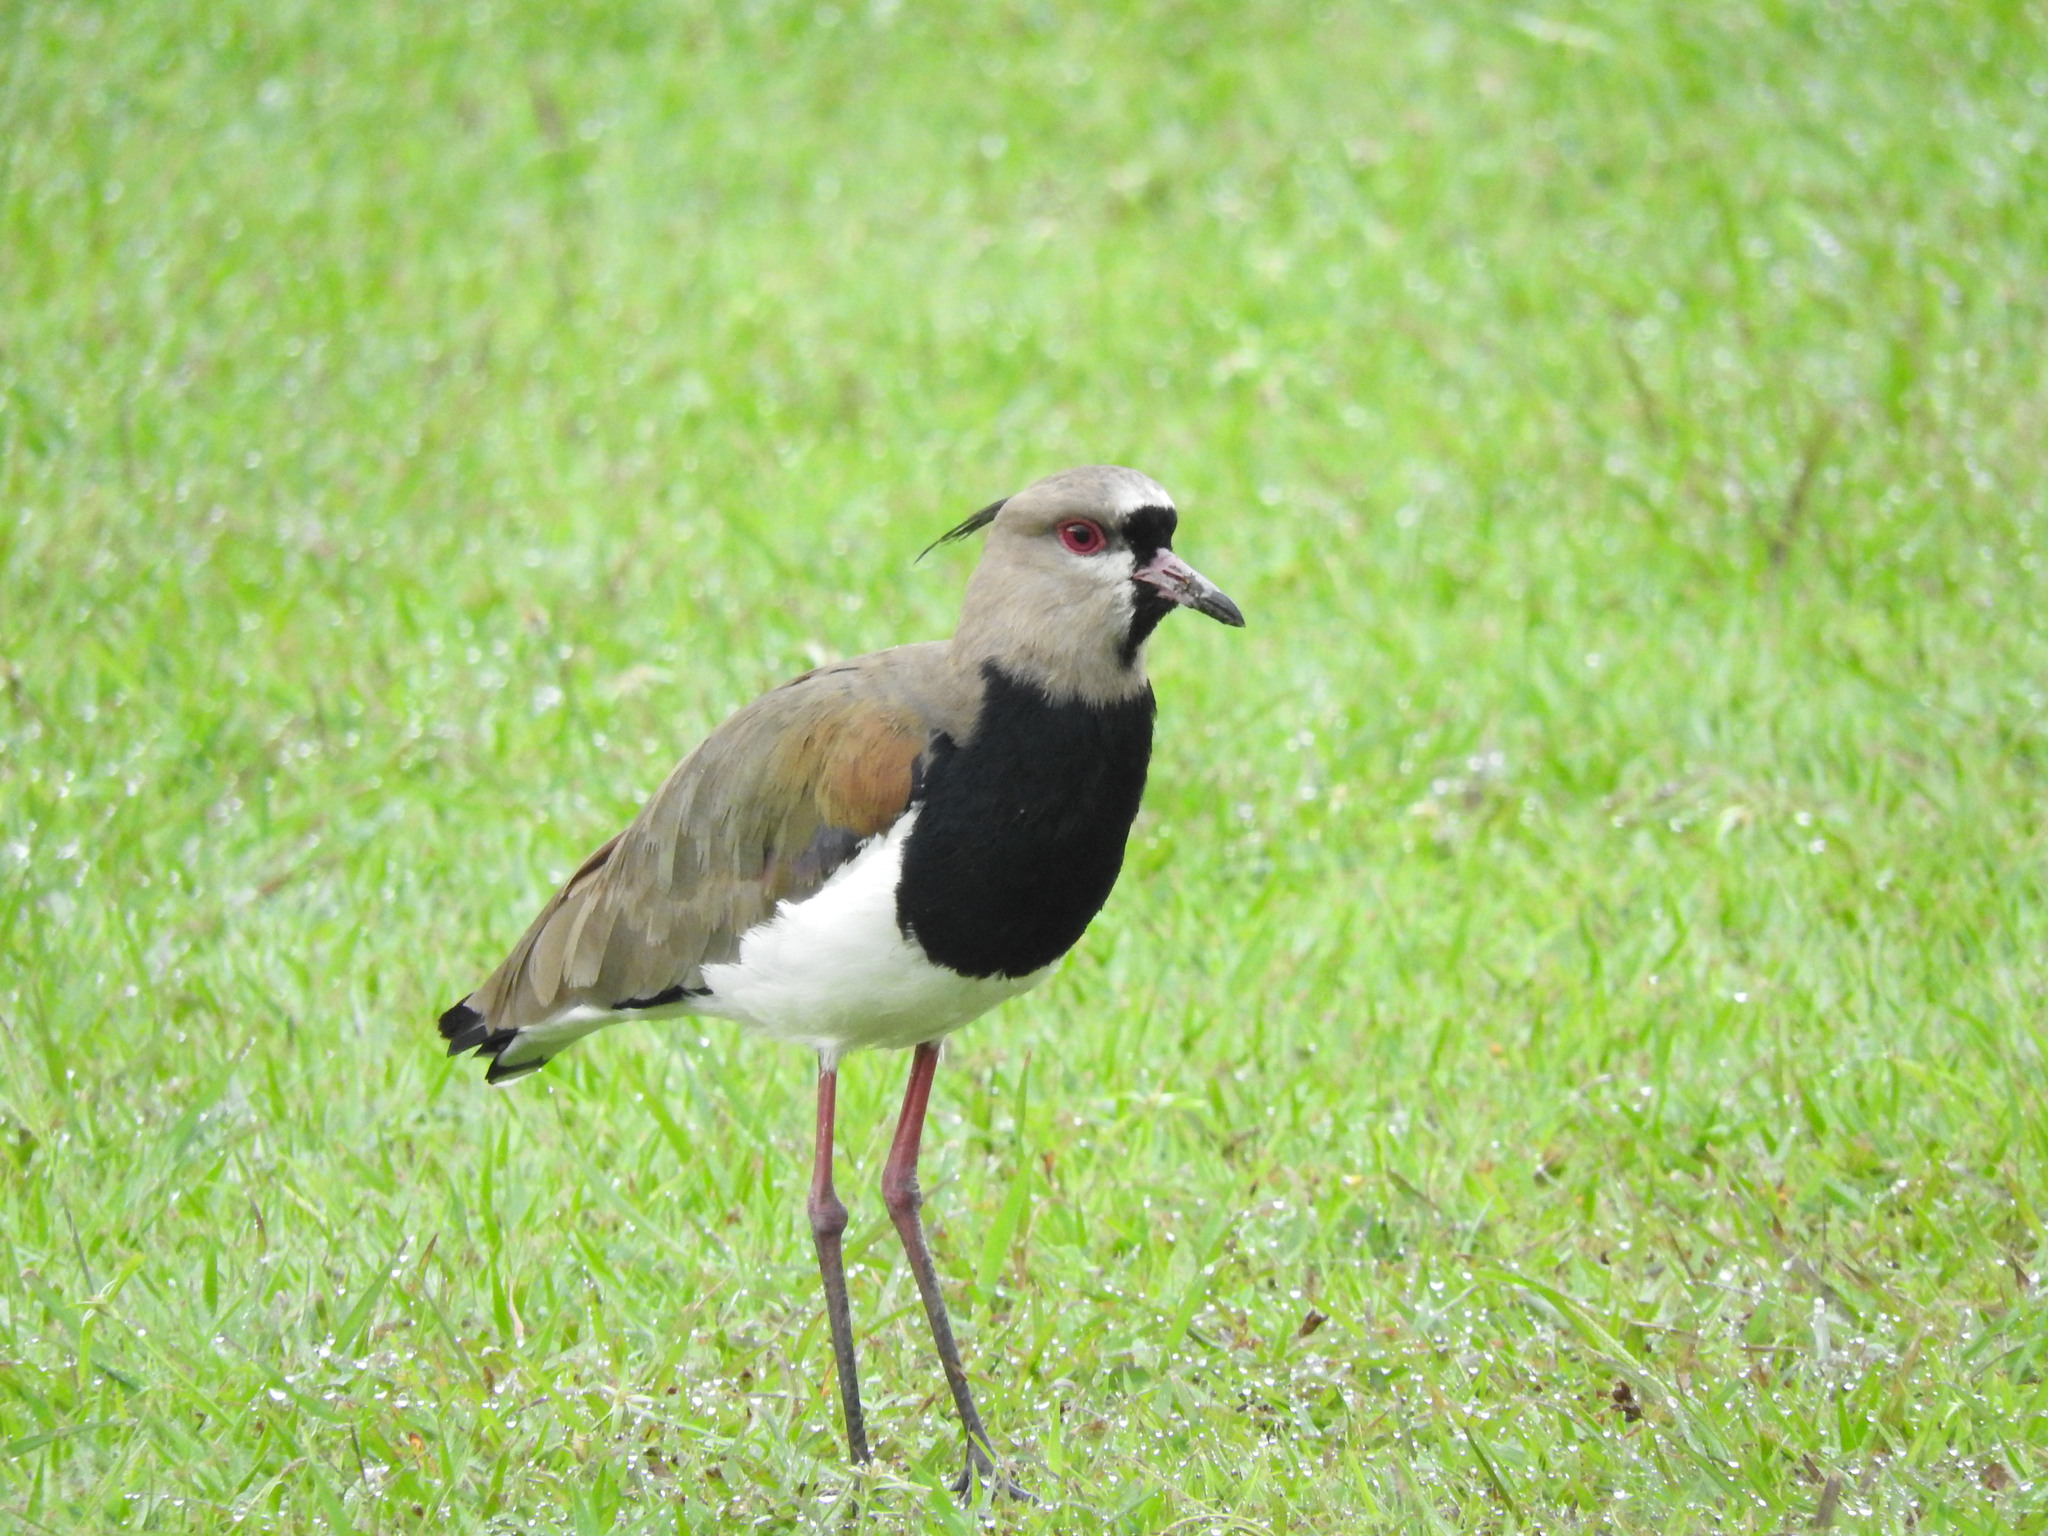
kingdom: Animalia
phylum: Chordata
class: Aves
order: Charadriiformes
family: Charadriidae
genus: Vanellus
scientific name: Vanellus chilensis
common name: Southern lapwing
